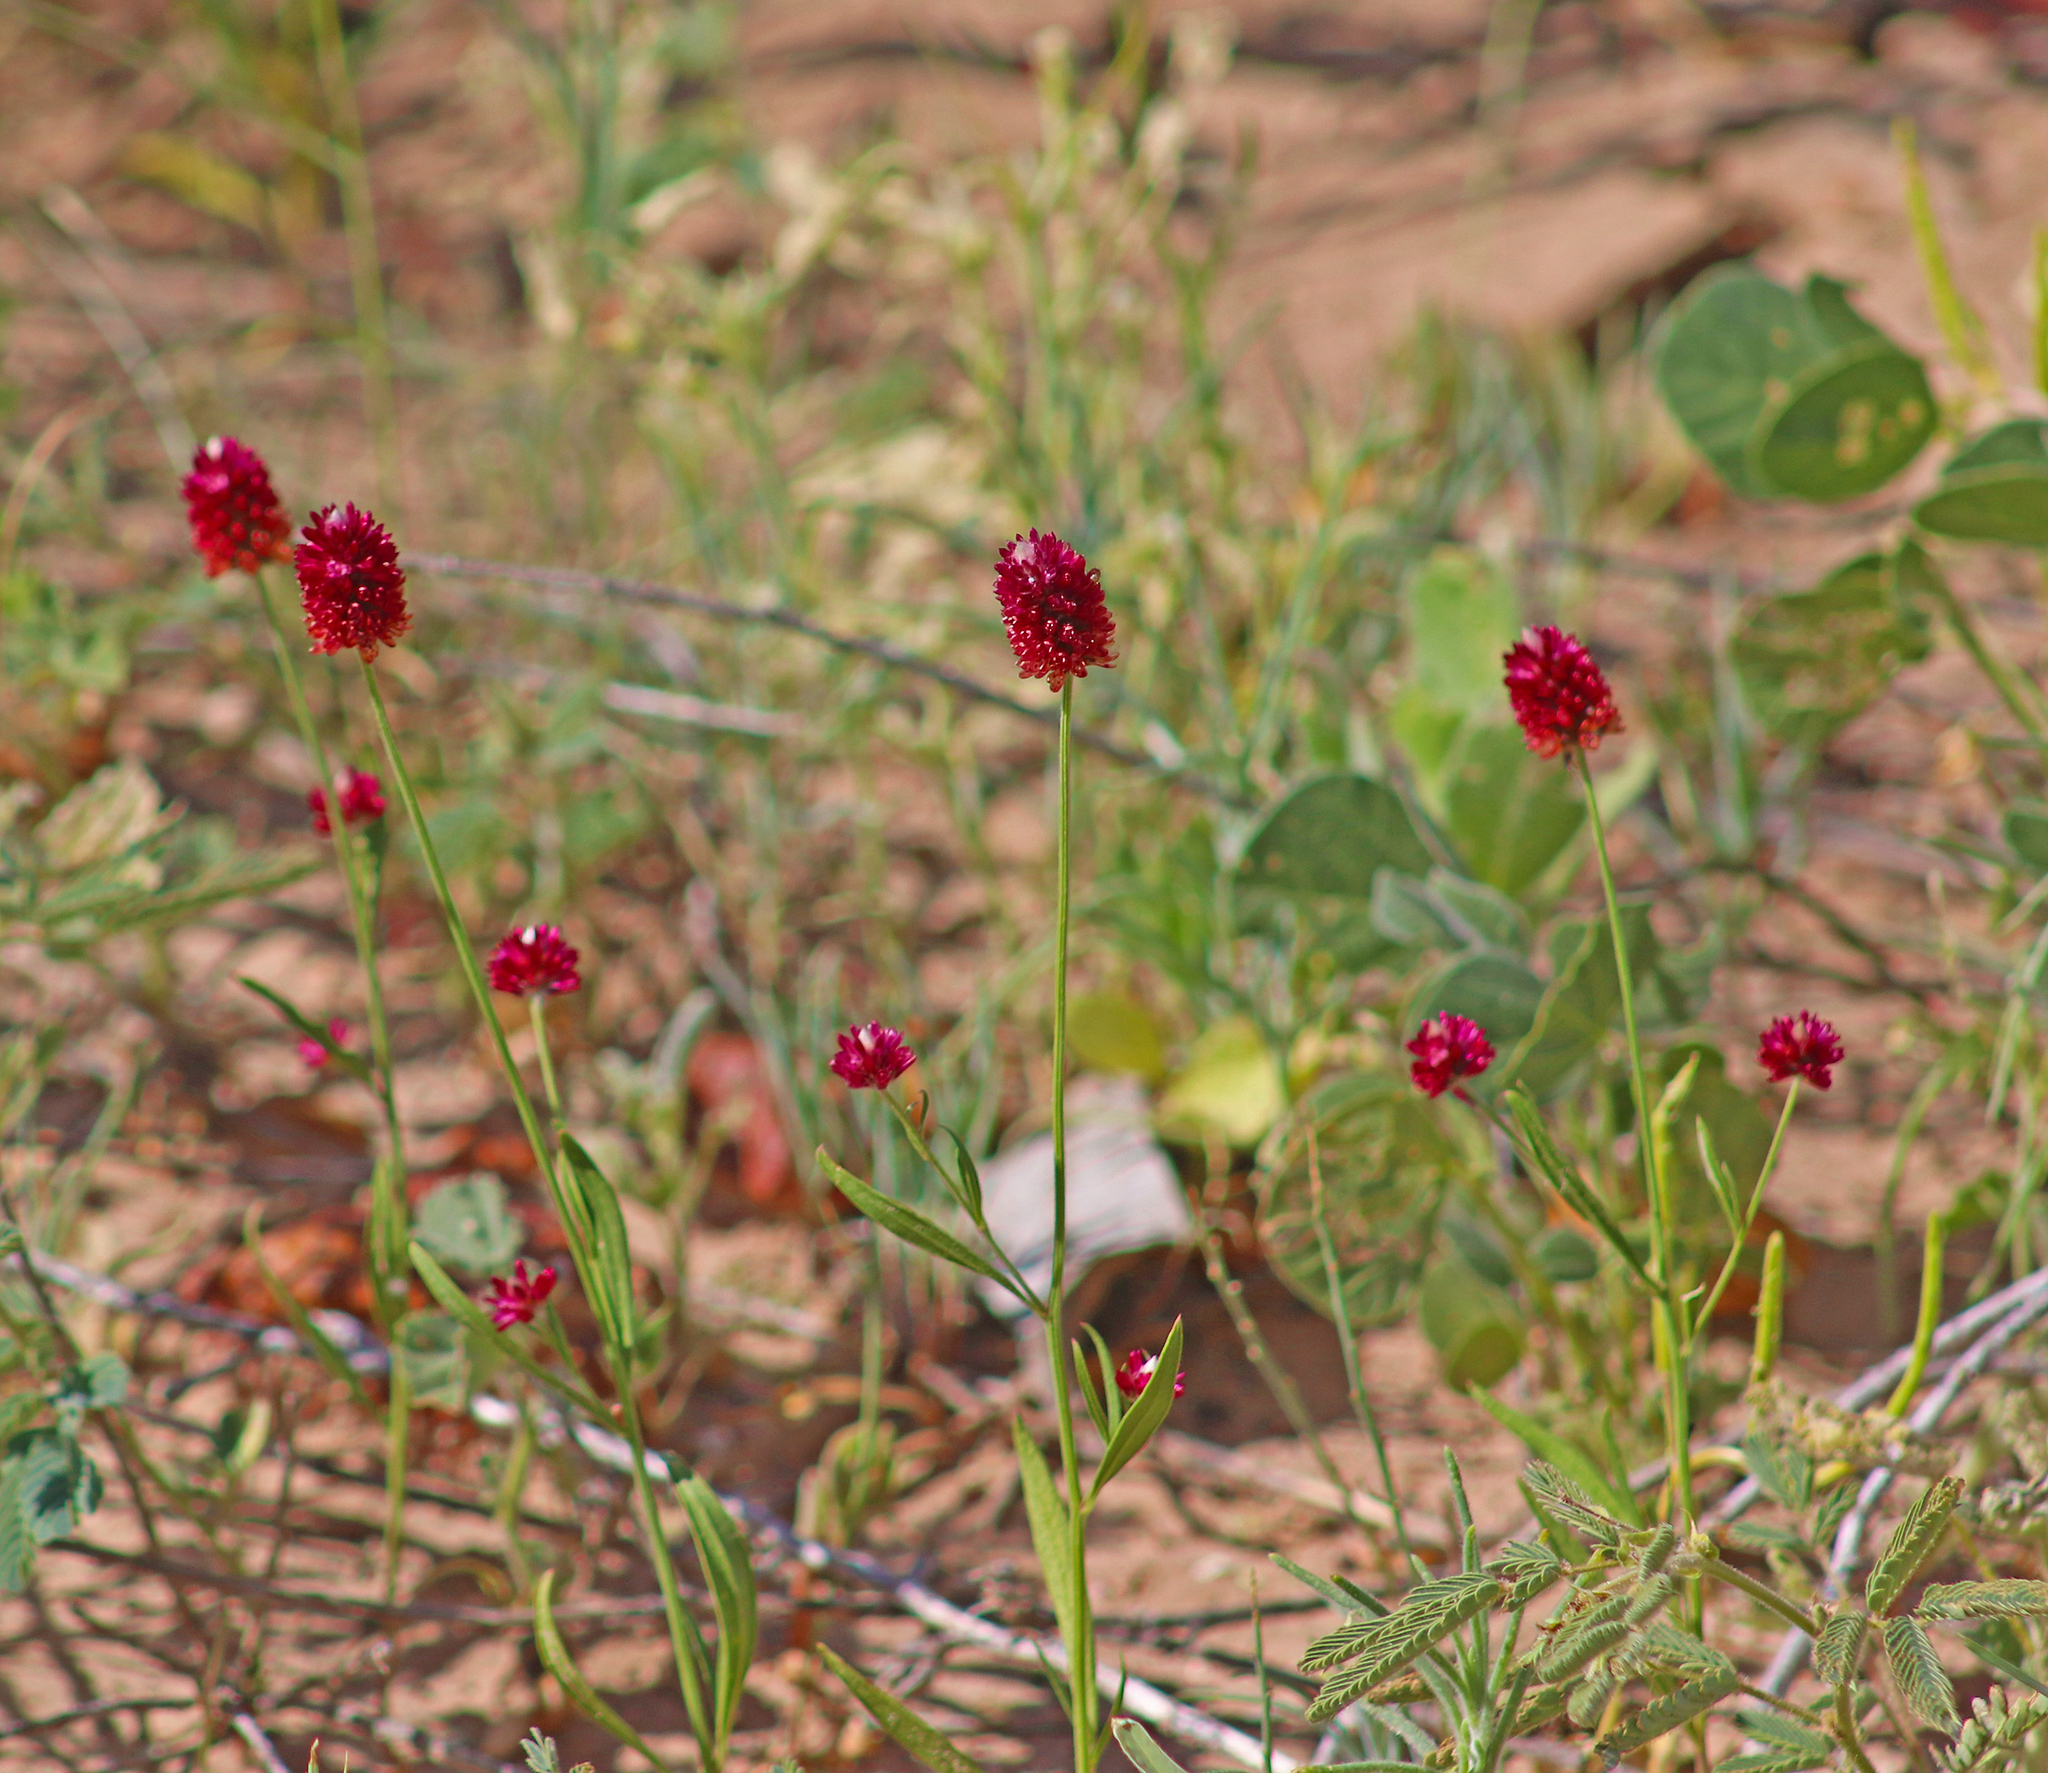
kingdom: Plantae
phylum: Tracheophyta
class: Magnoliopsida
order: Caryophyllales
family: Amaranthaceae
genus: Ptilotus
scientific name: Ptilotus spicatus
